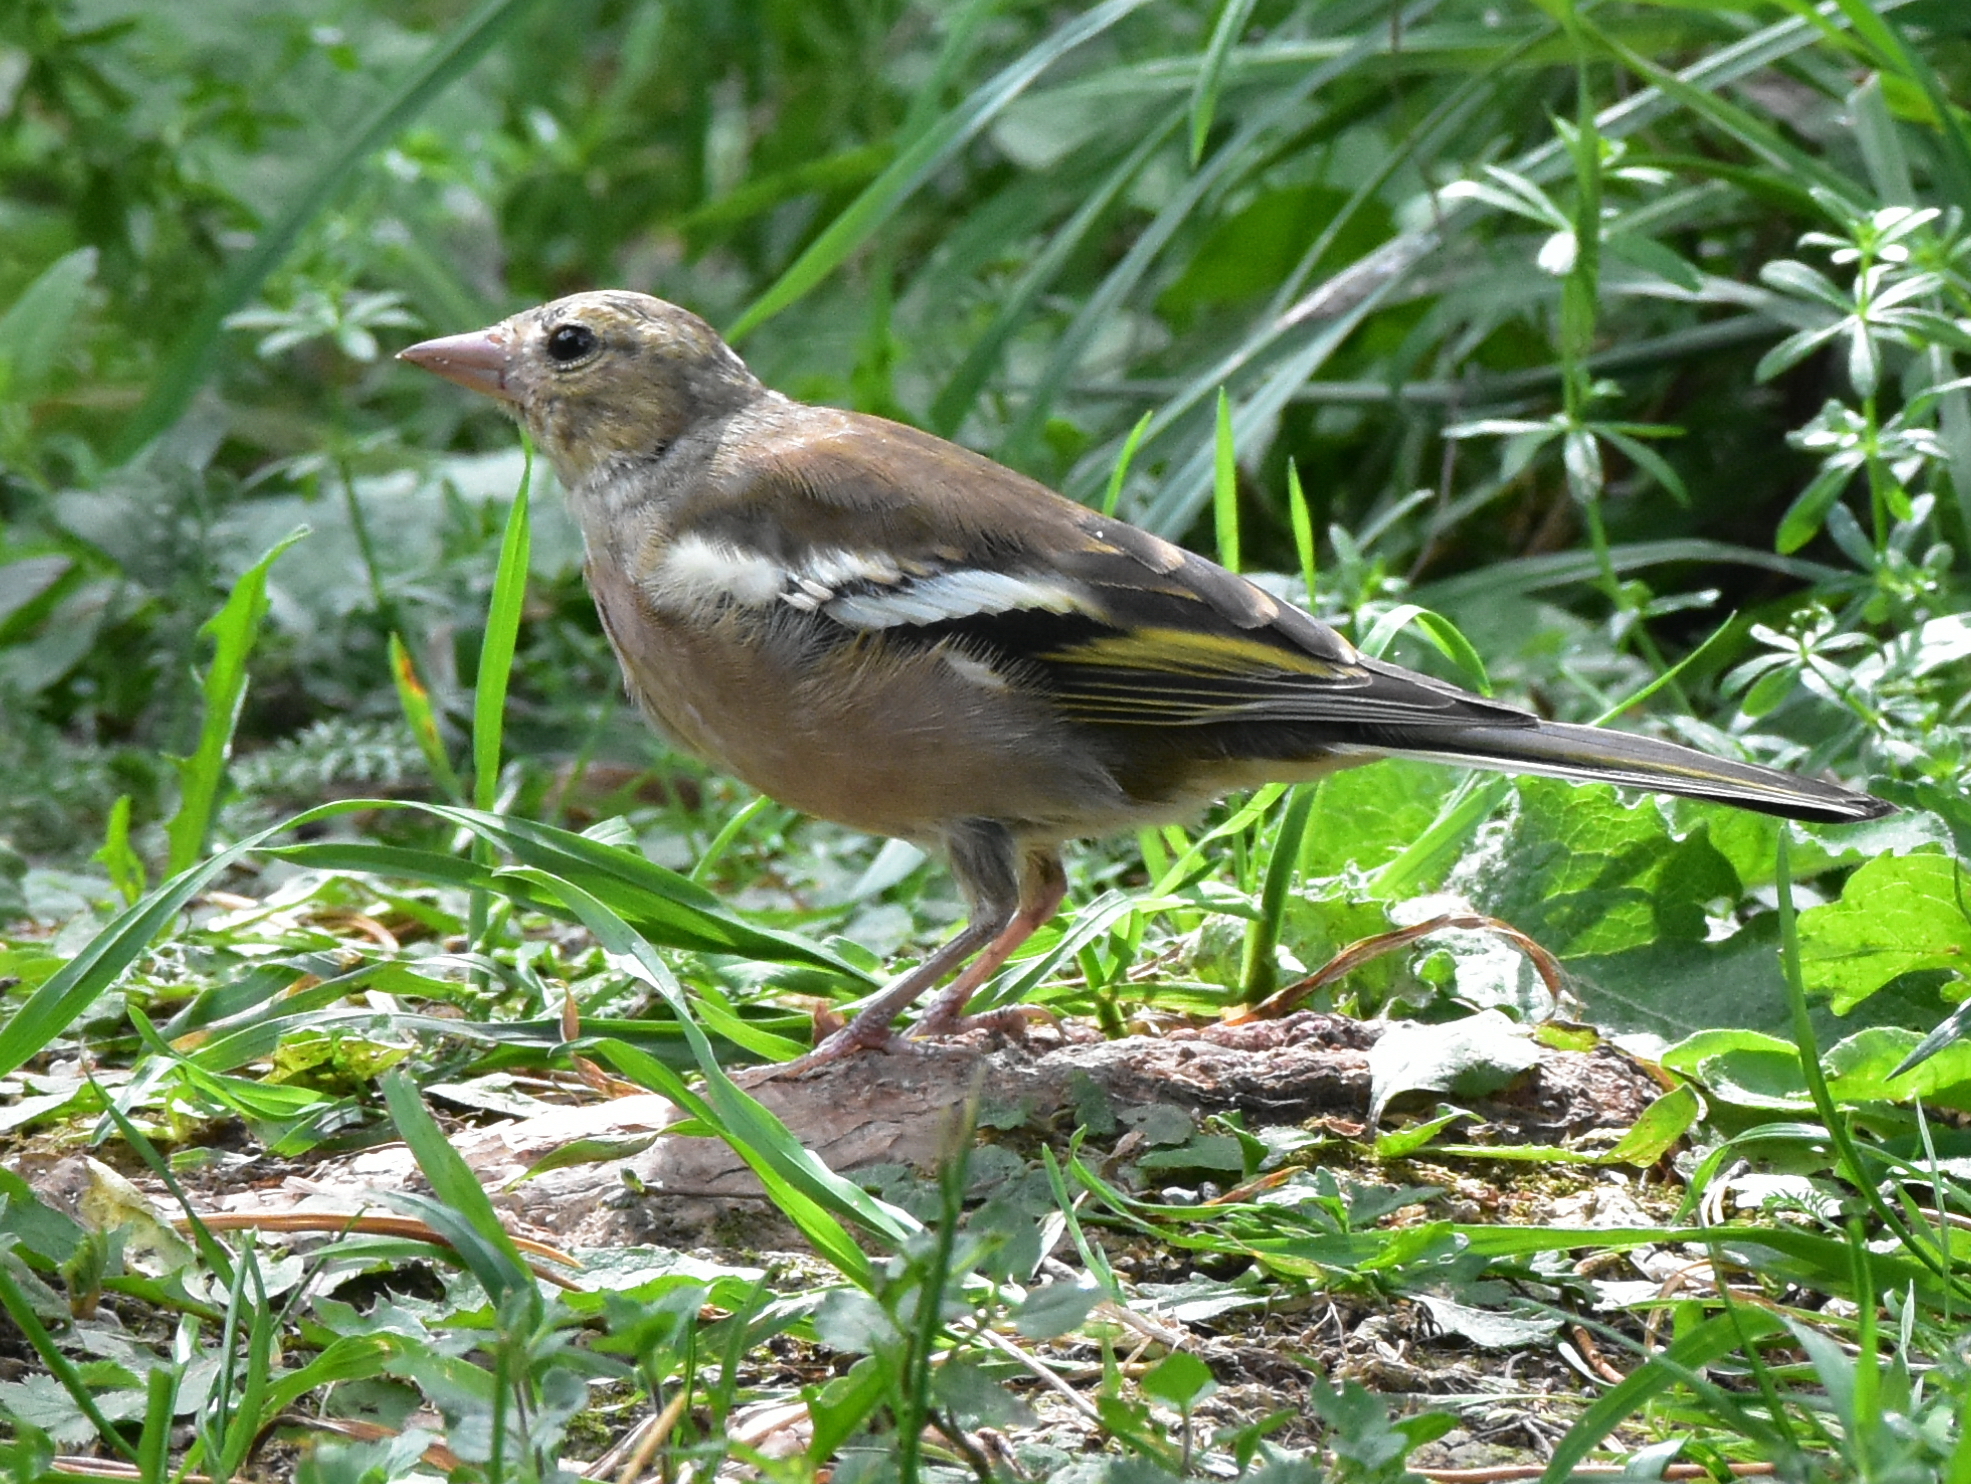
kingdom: Animalia
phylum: Chordata
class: Aves
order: Passeriformes
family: Fringillidae
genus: Fringilla
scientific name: Fringilla coelebs
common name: Common chaffinch
